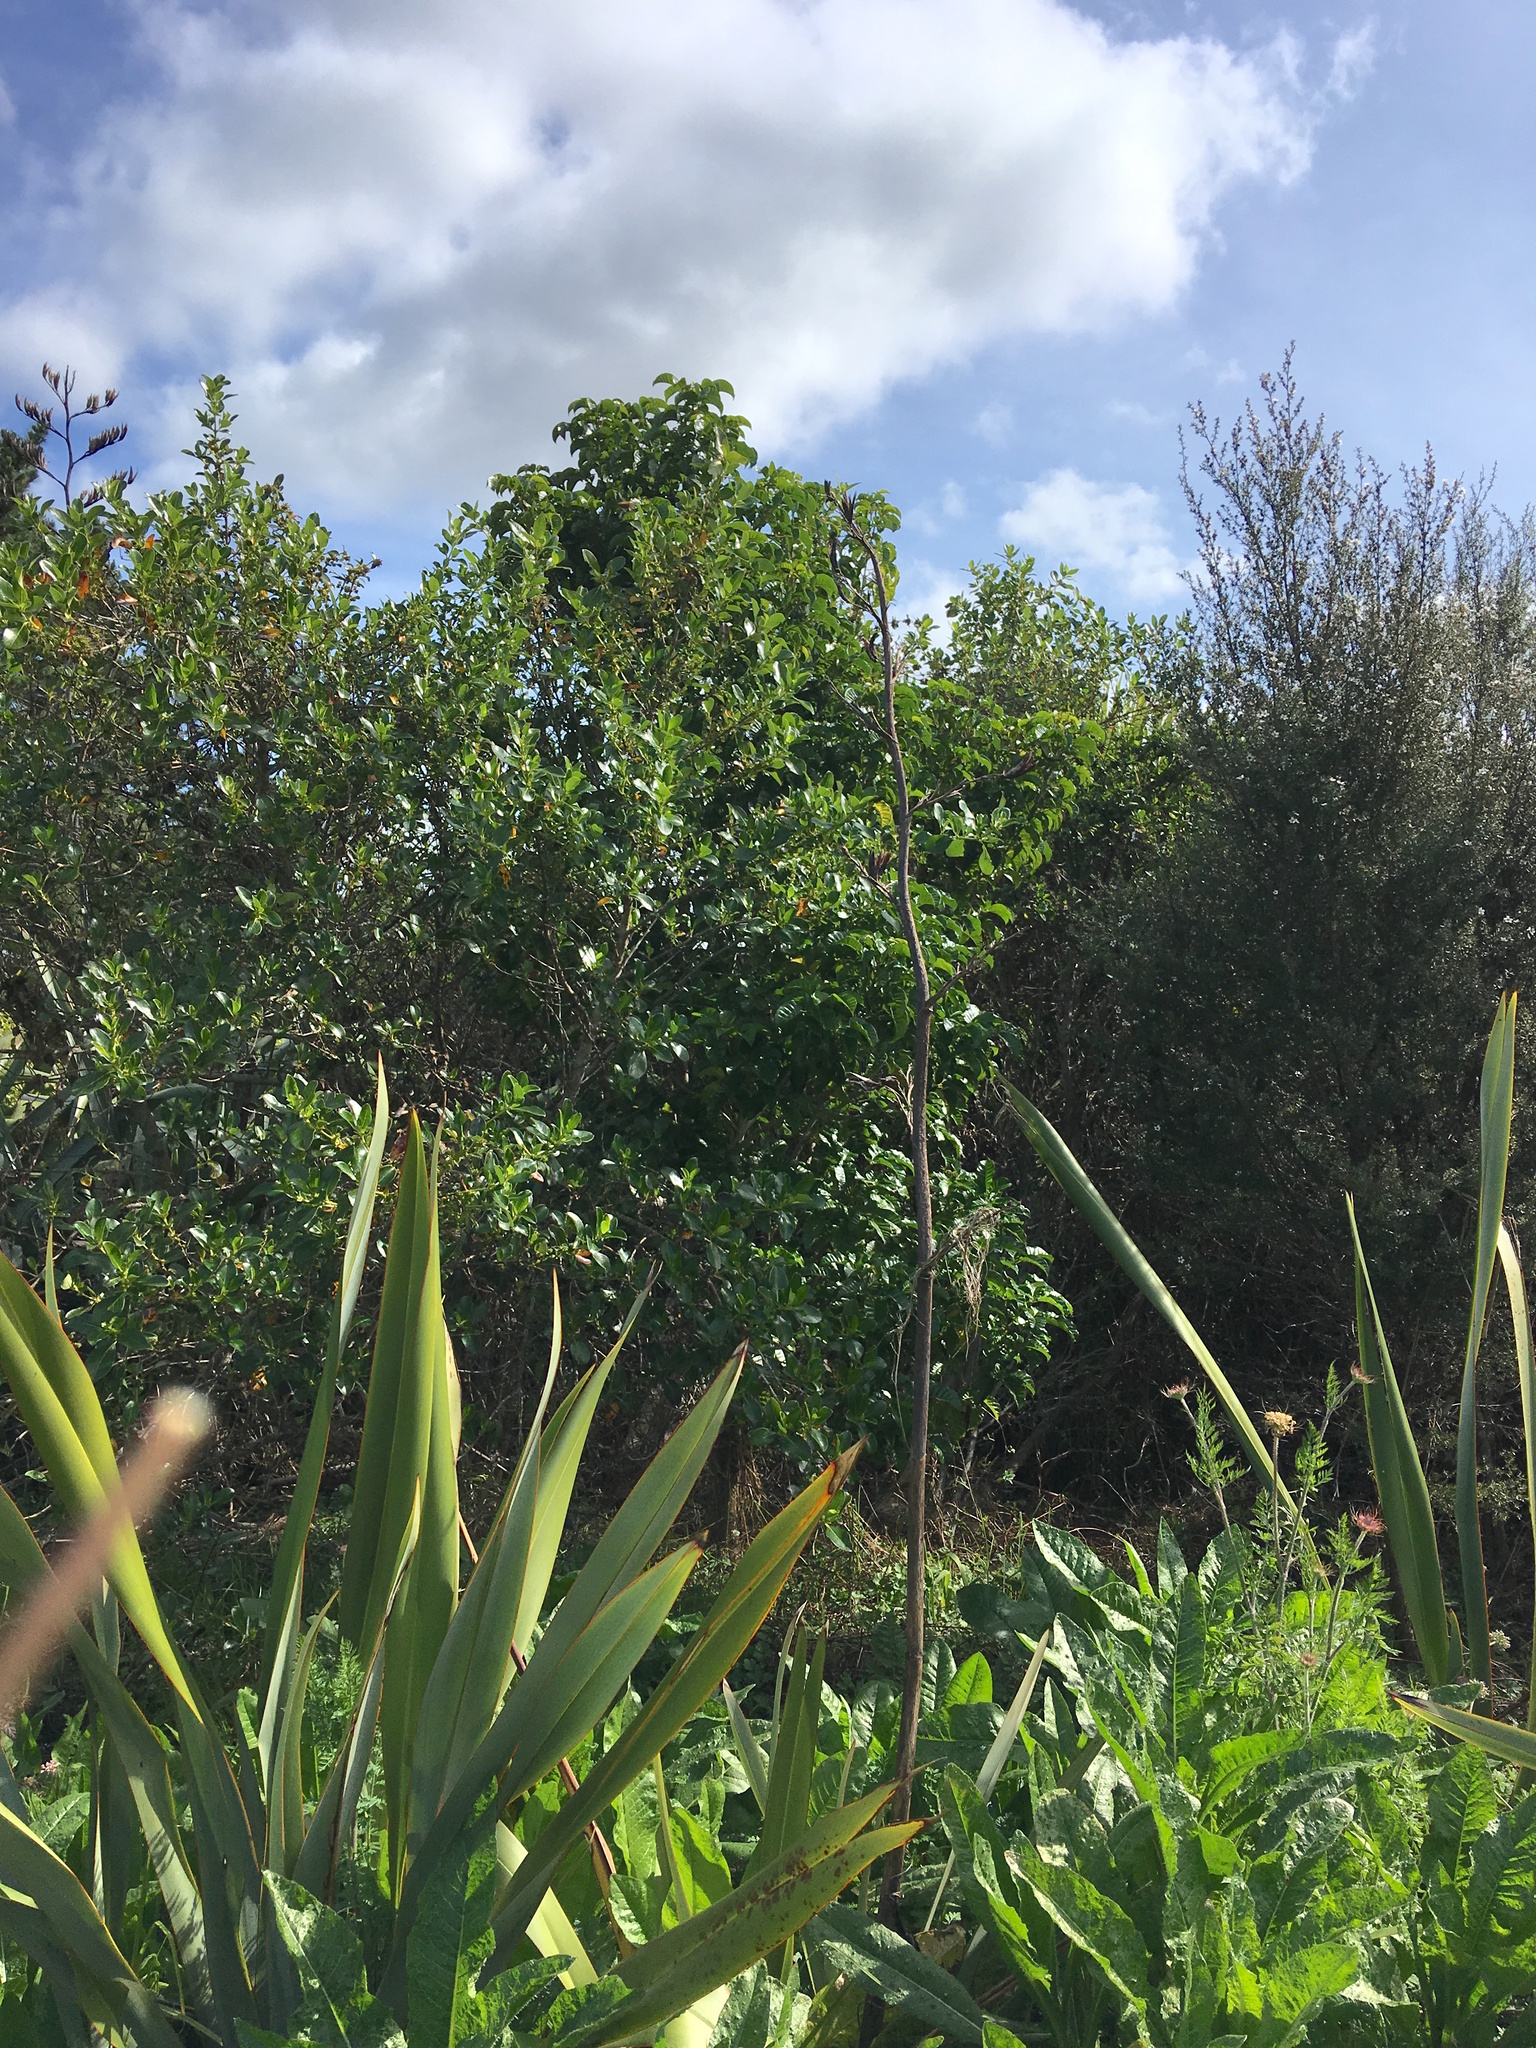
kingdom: Plantae
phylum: Tracheophyta
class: Magnoliopsida
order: Lamiales
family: Lamiaceae
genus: Vitex
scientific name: Vitex lucens
